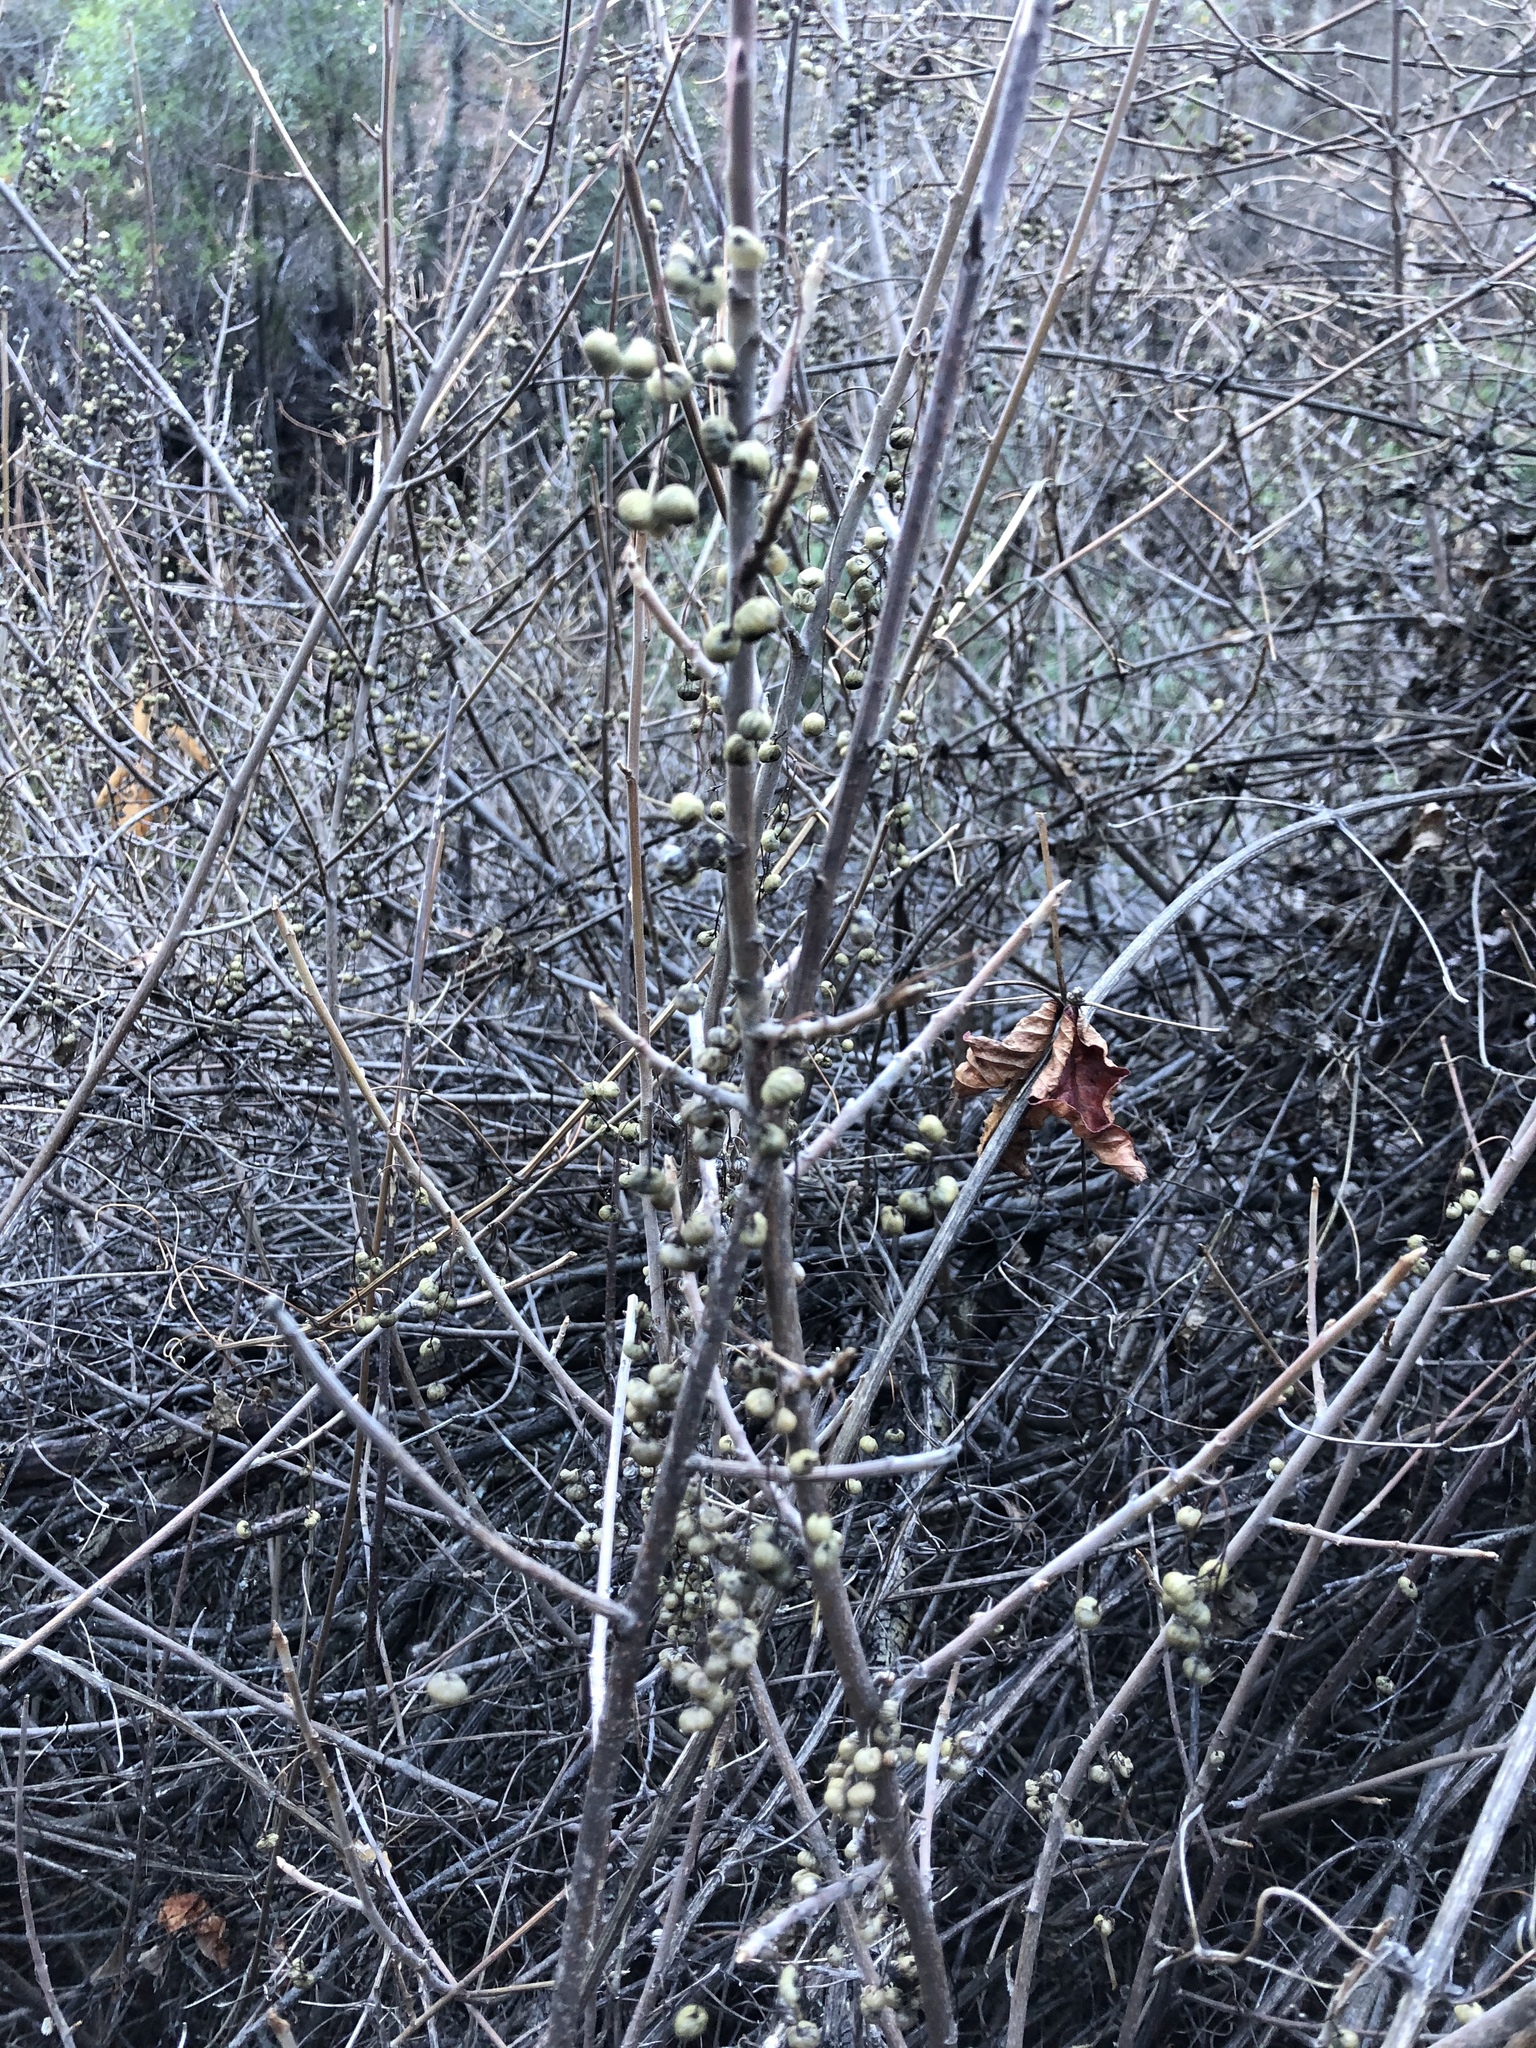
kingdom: Plantae
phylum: Tracheophyta
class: Magnoliopsida
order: Sapindales
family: Anacardiaceae
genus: Toxicodendron
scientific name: Toxicodendron diversilobum
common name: Pacific poison-oak
